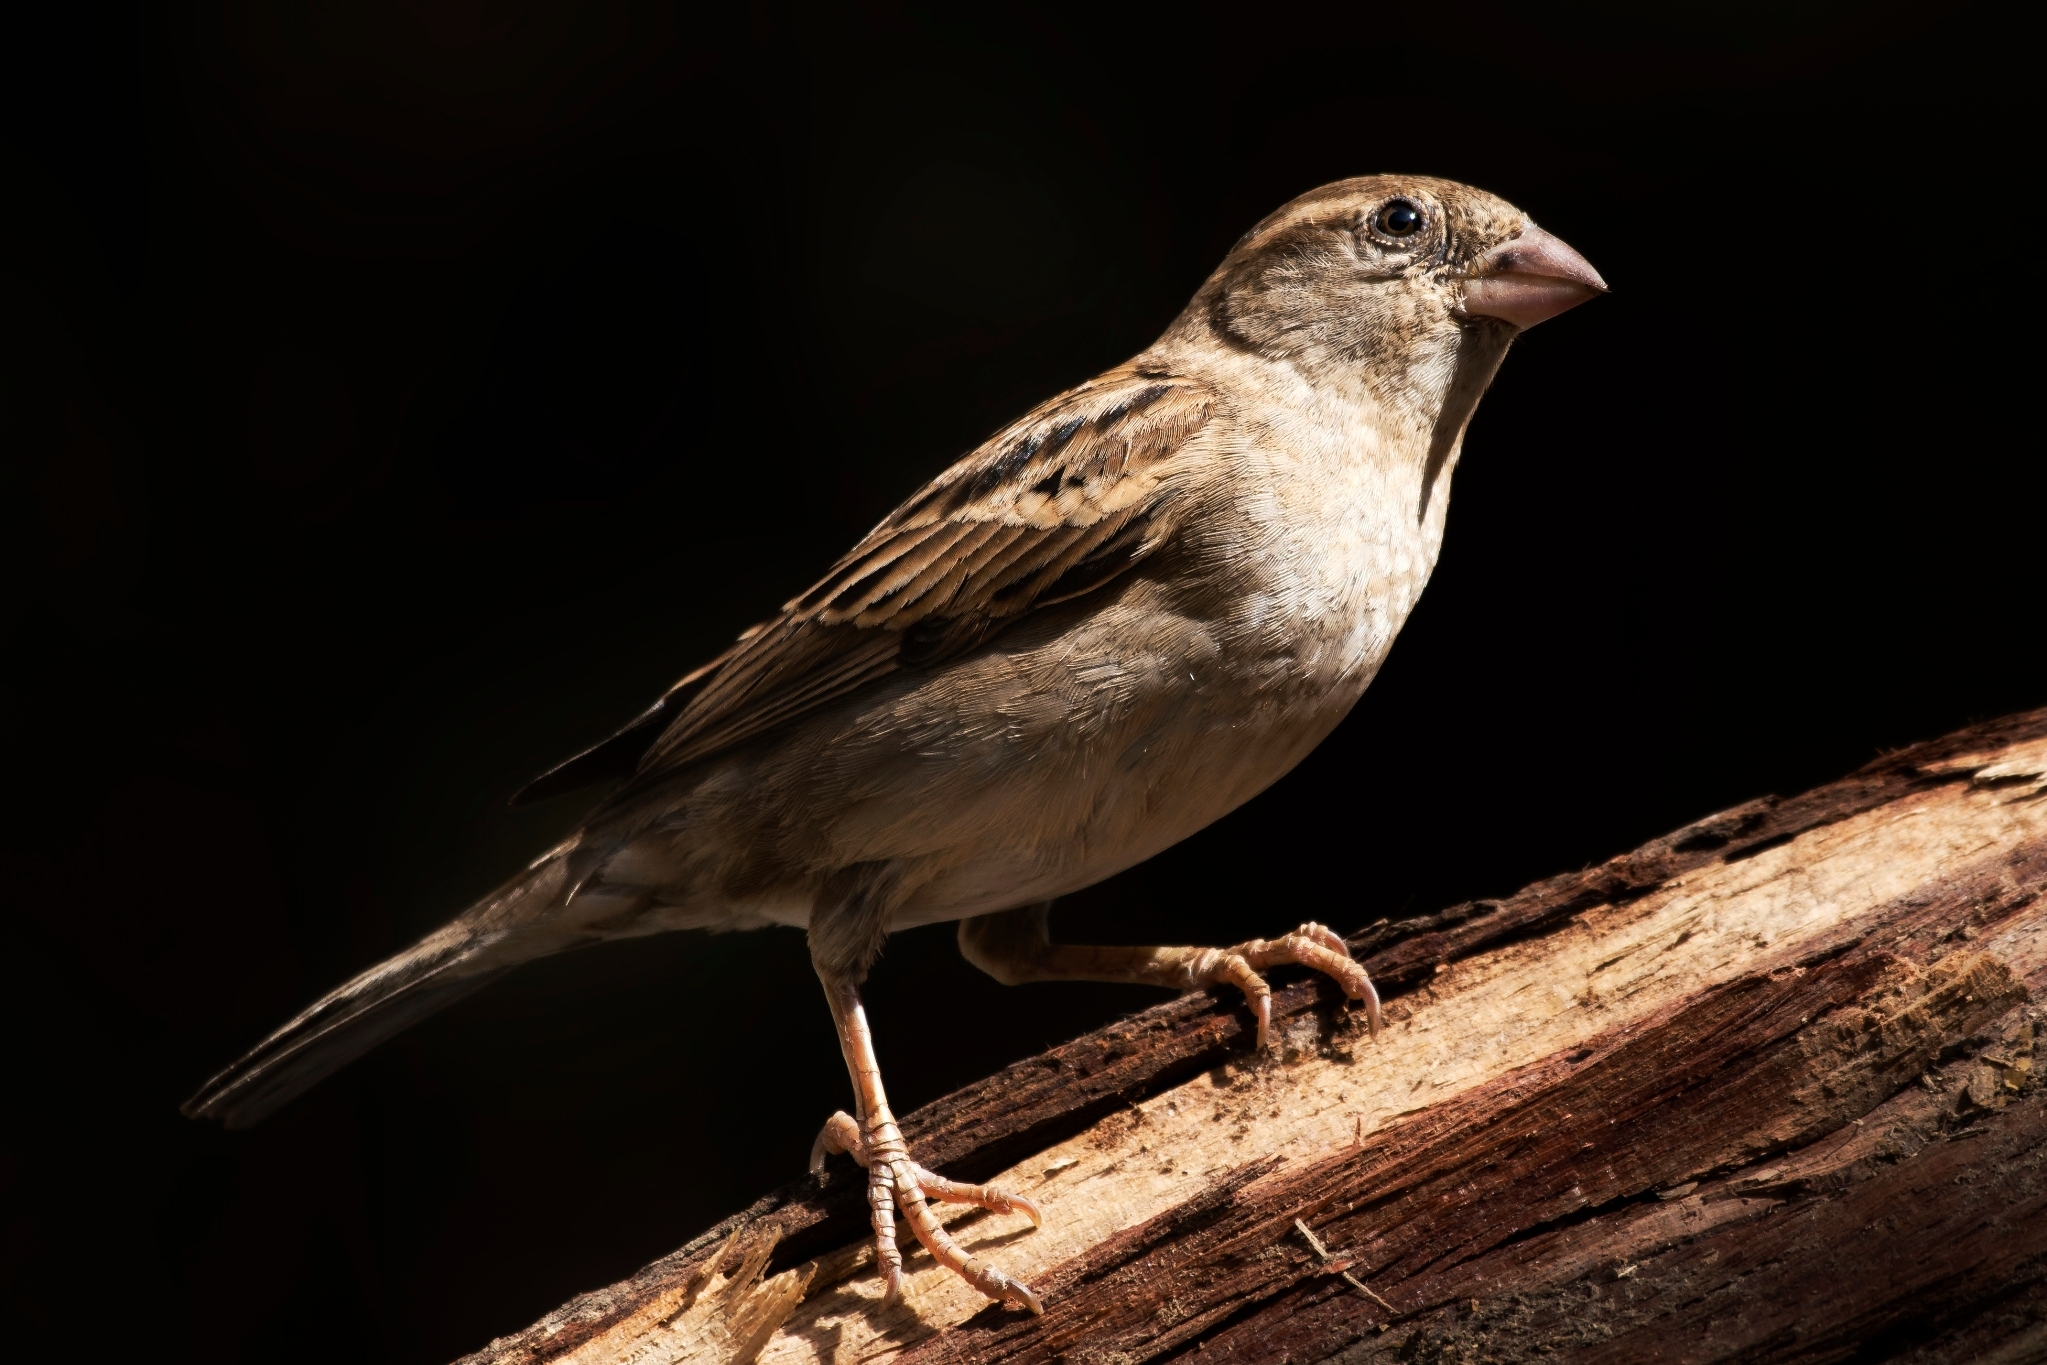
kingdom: Animalia
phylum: Chordata
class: Aves
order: Passeriformes
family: Passeridae
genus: Passer
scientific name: Passer domesticus
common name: House sparrow
